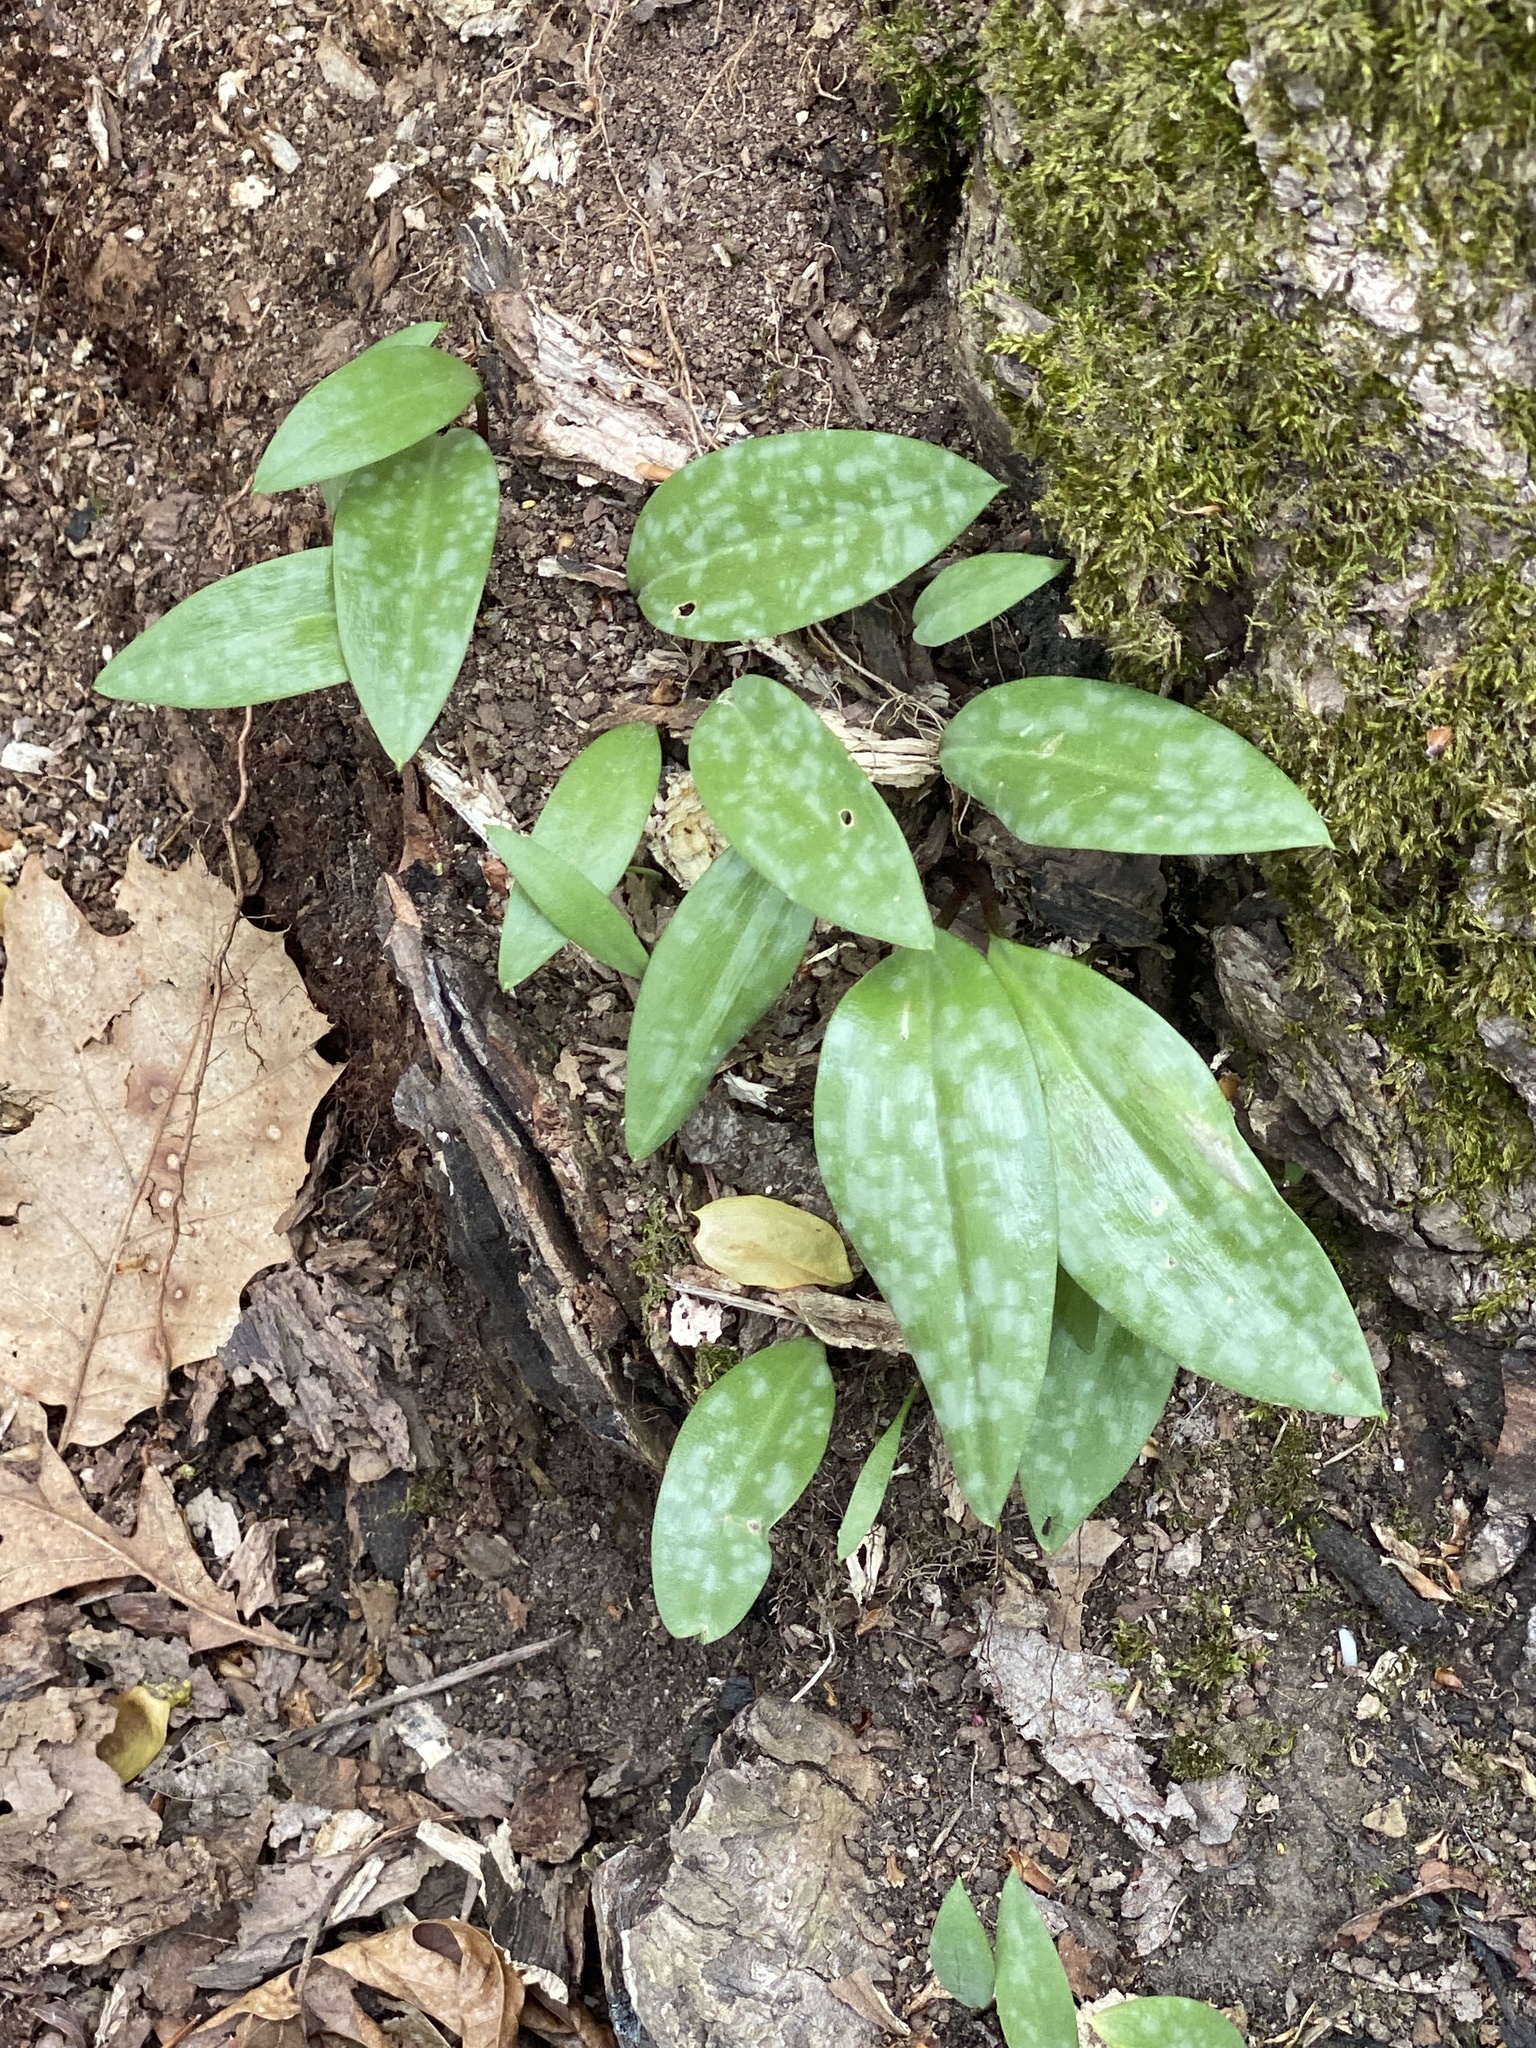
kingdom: Plantae
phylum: Tracheophyta
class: Liliopsida
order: Liliales
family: Liliaceae
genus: Erythronium
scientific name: Erythronium americanum
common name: Yellow adder's-tongue
